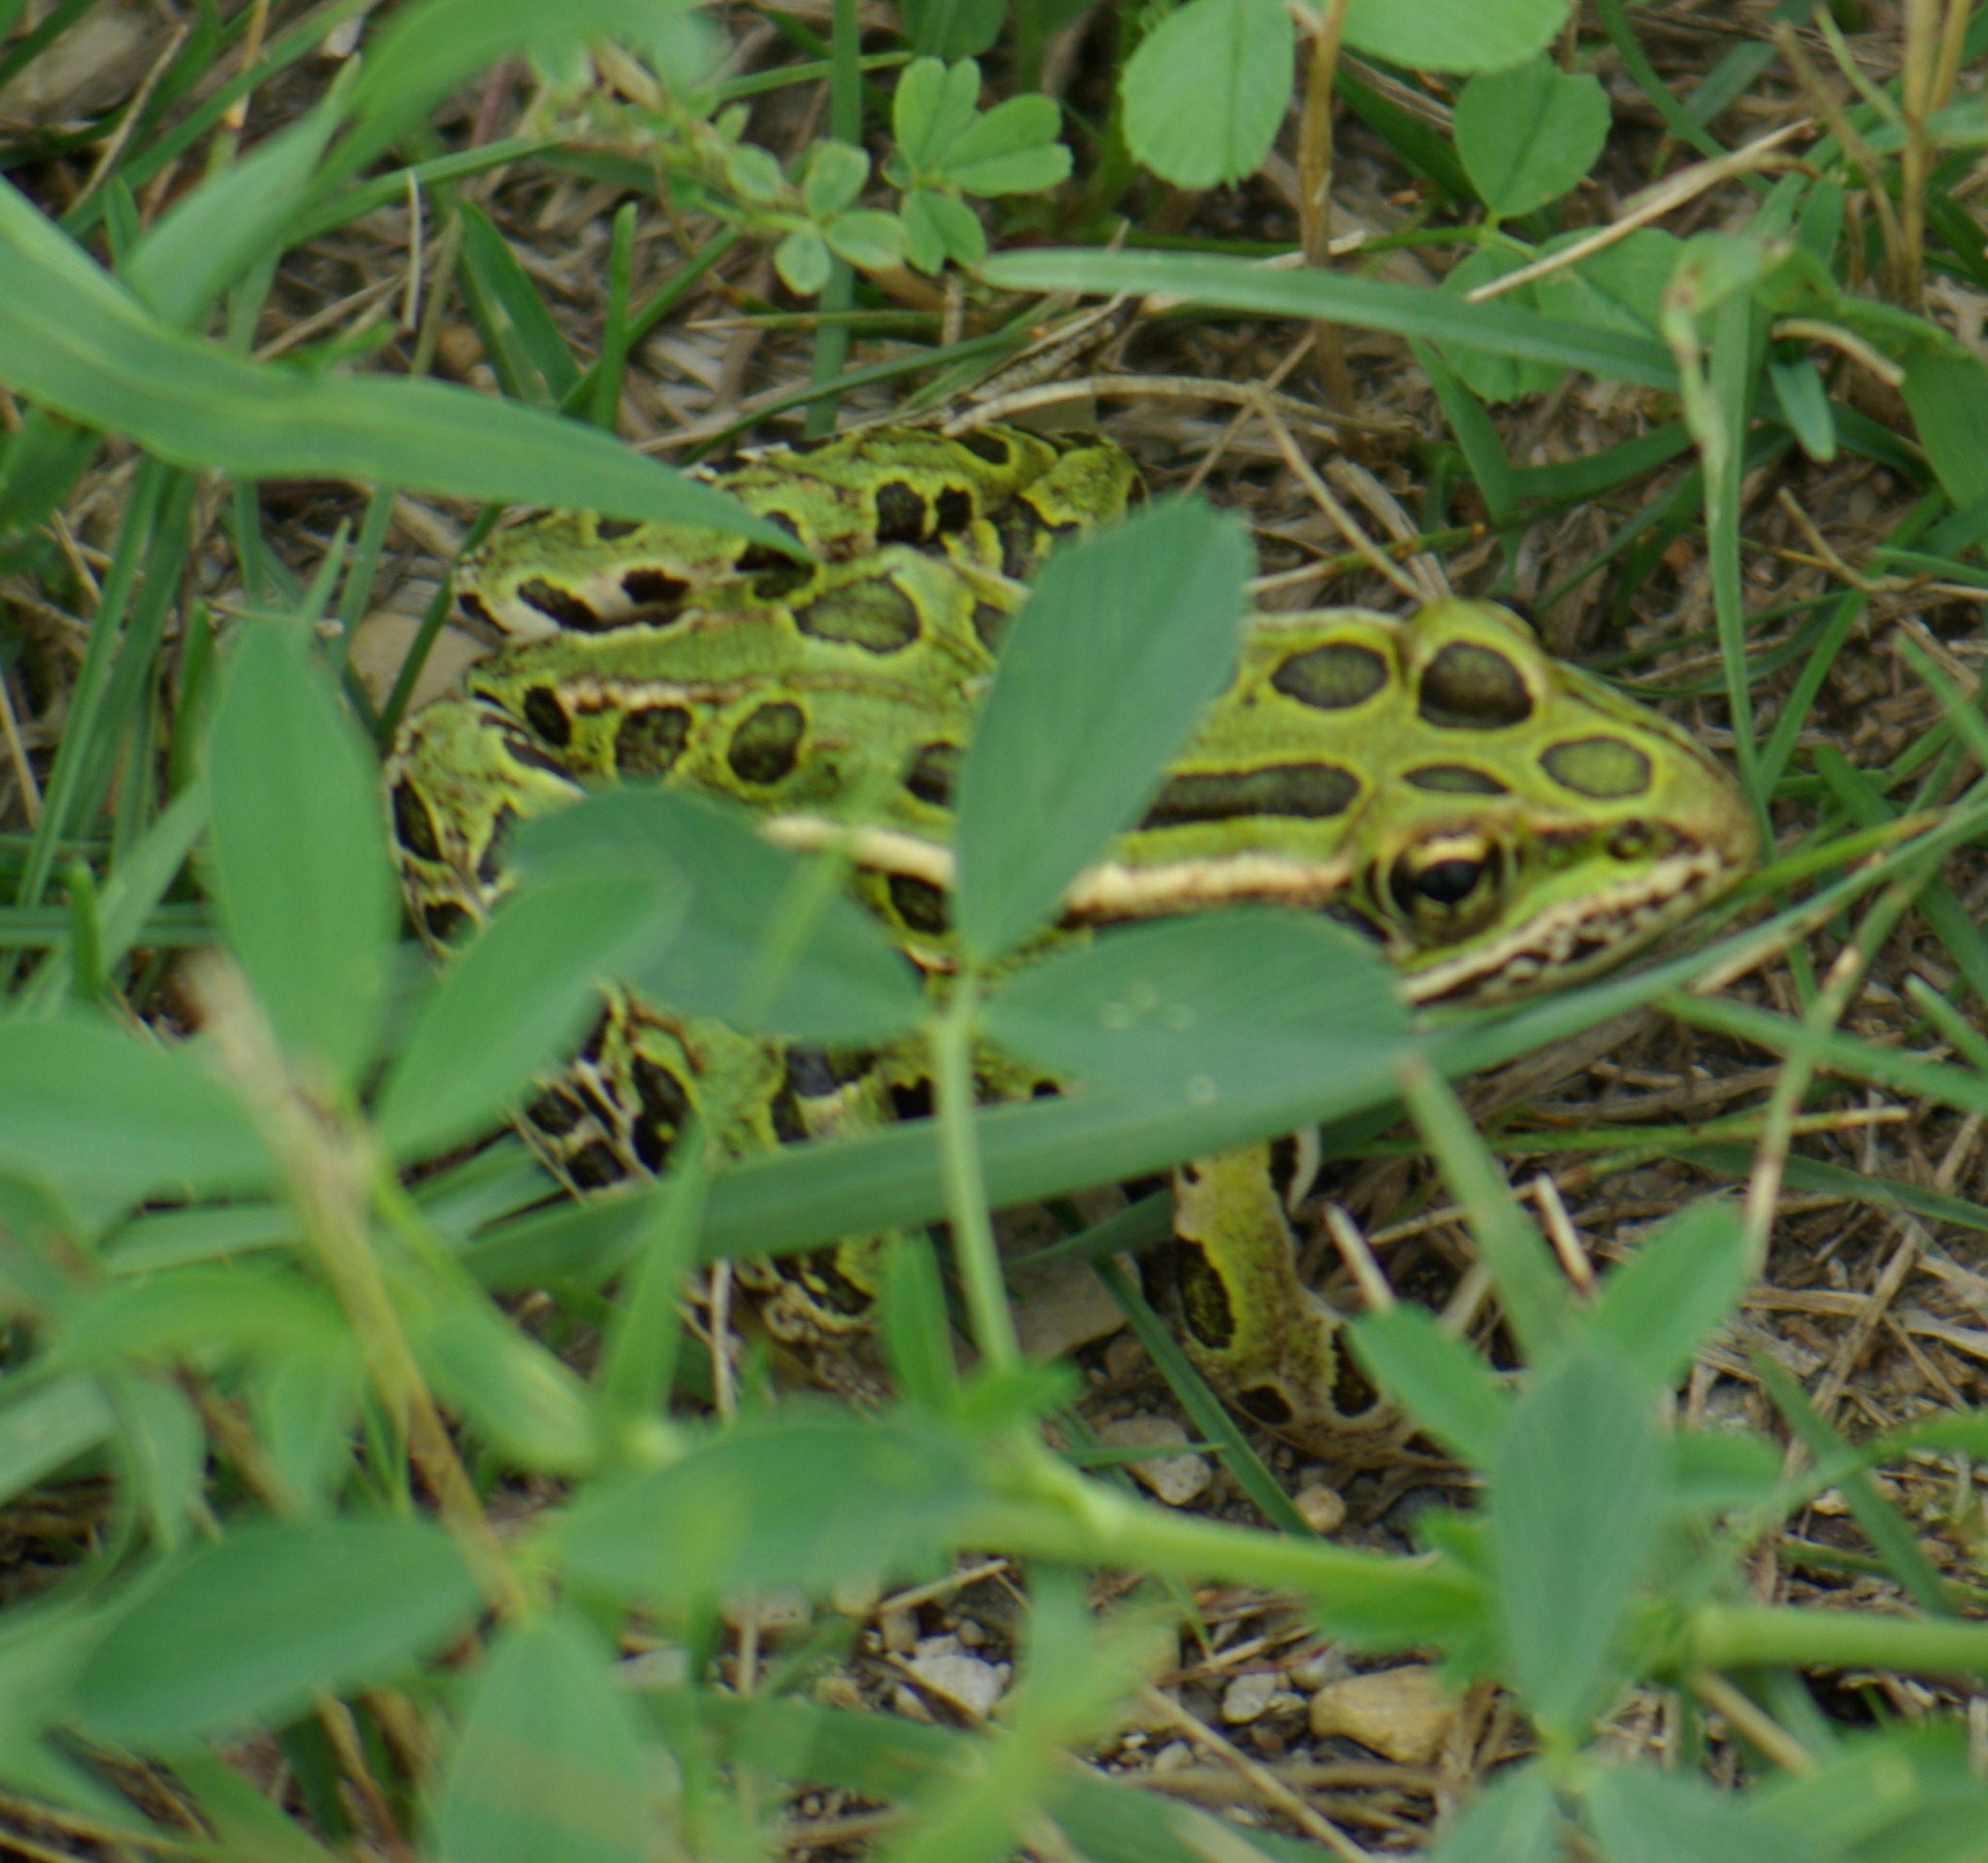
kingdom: Animalia
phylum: Chordata
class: Amphibia
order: Anura
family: Ranidae
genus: Lithobates
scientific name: Lithobates pipiens
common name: Northern leopard frog
